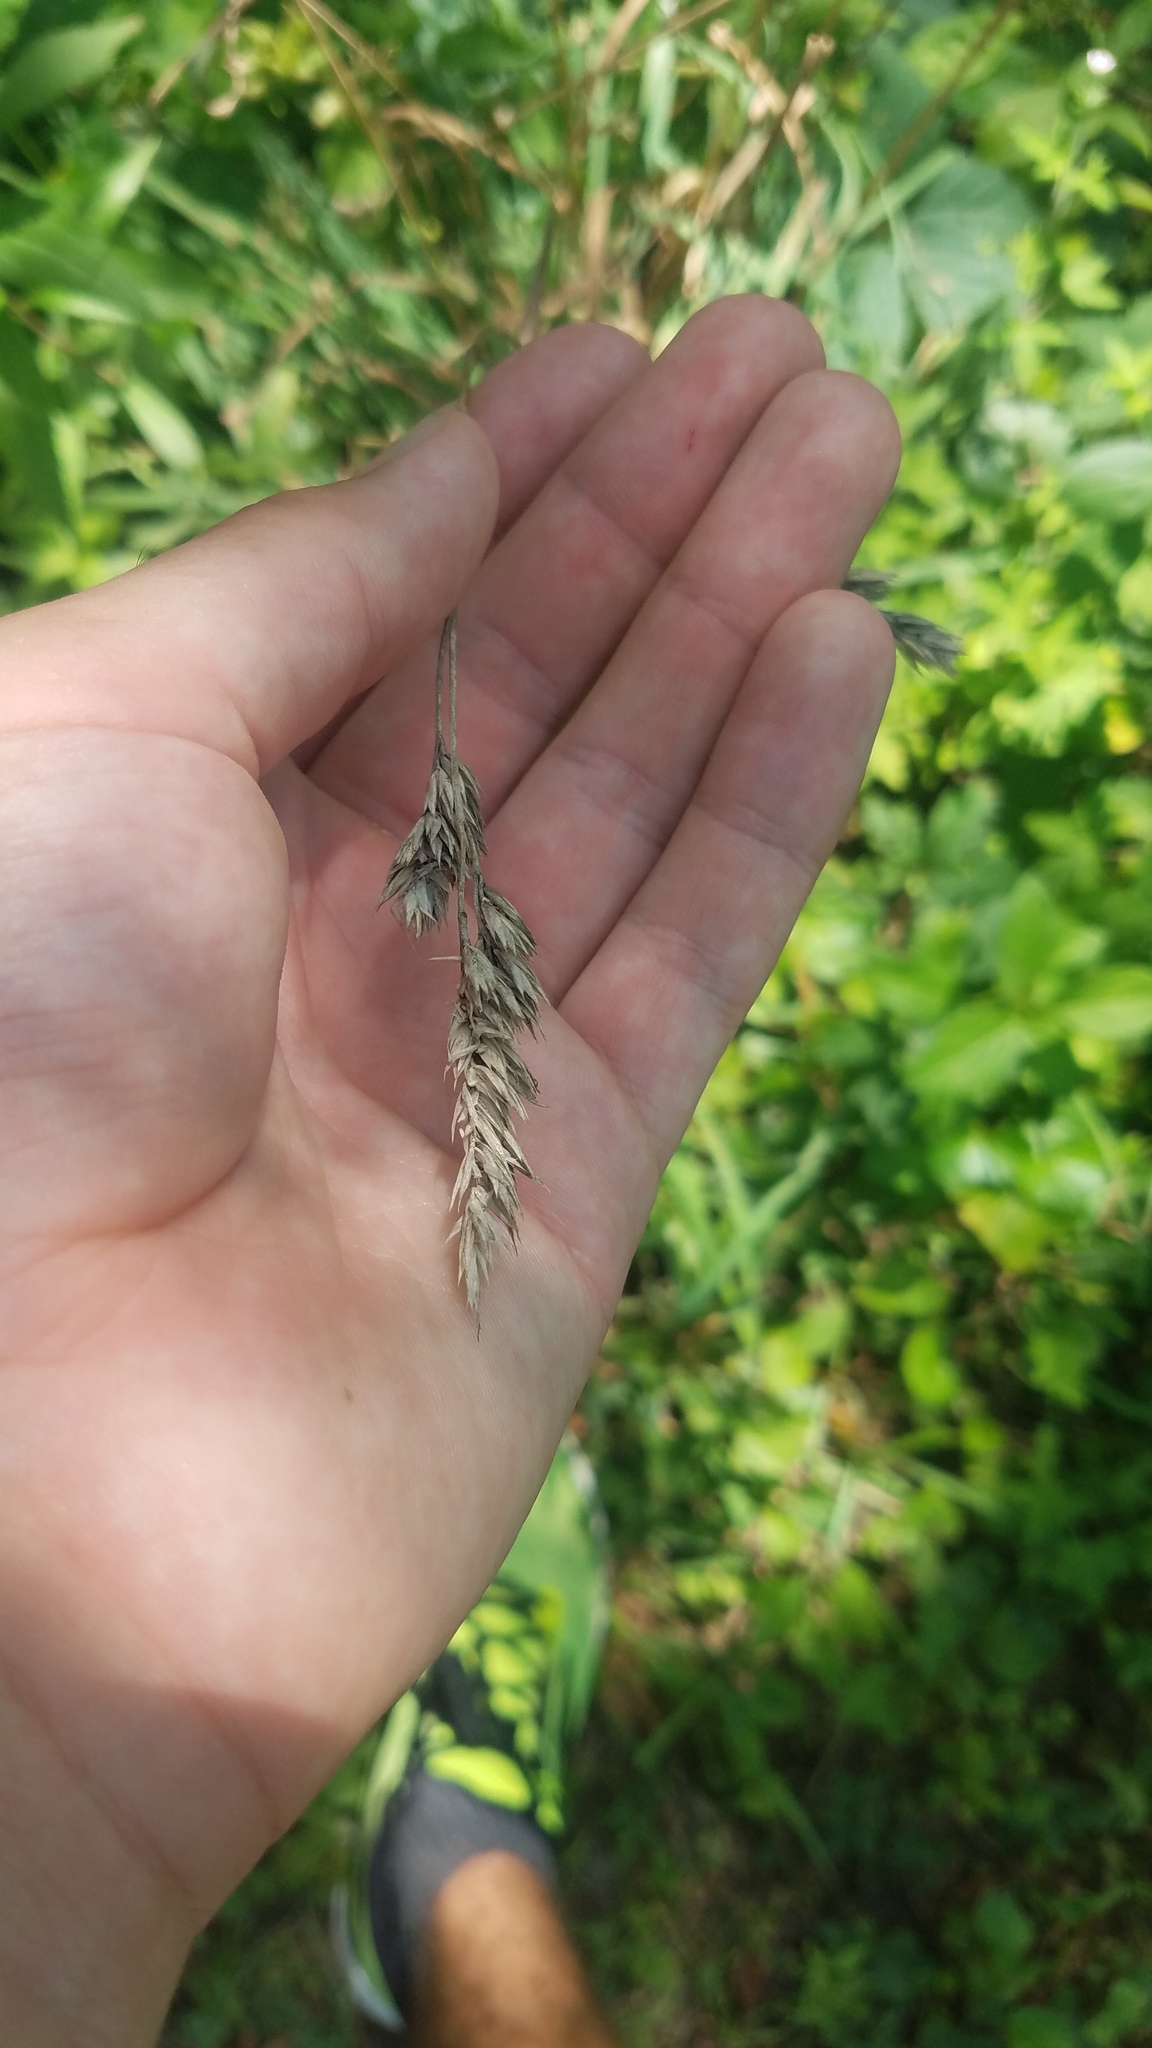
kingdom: Plantae
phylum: Tracheophyta
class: Liliopsida
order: Poales
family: Poaceae
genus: Dactylis
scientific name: Dactylis glomerata
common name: Orchardgrass
